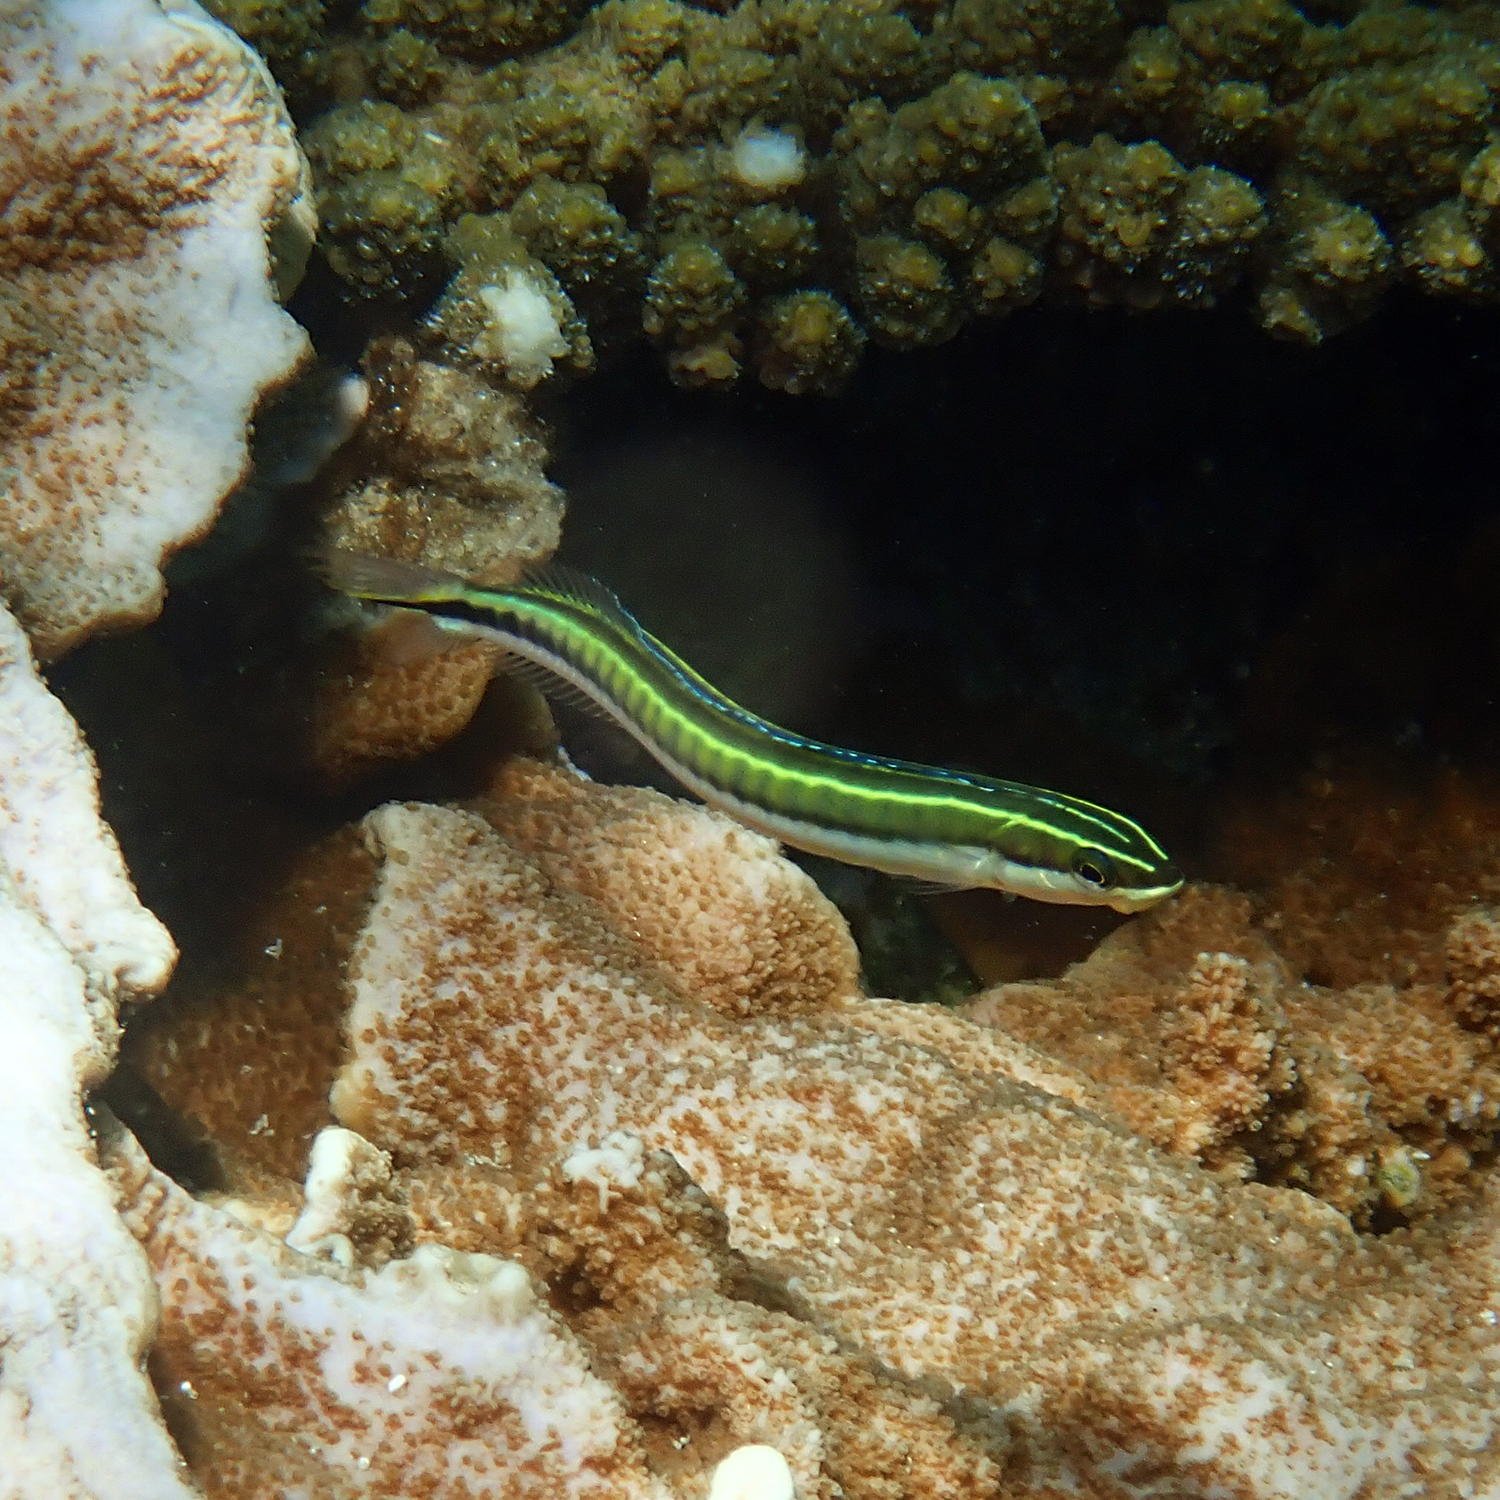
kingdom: Animalia
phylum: Chordata
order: Perciformes
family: Blenniidae
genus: Plagiotremus
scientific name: Plagiotremus tapeinosoma
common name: Hit and run blenny
